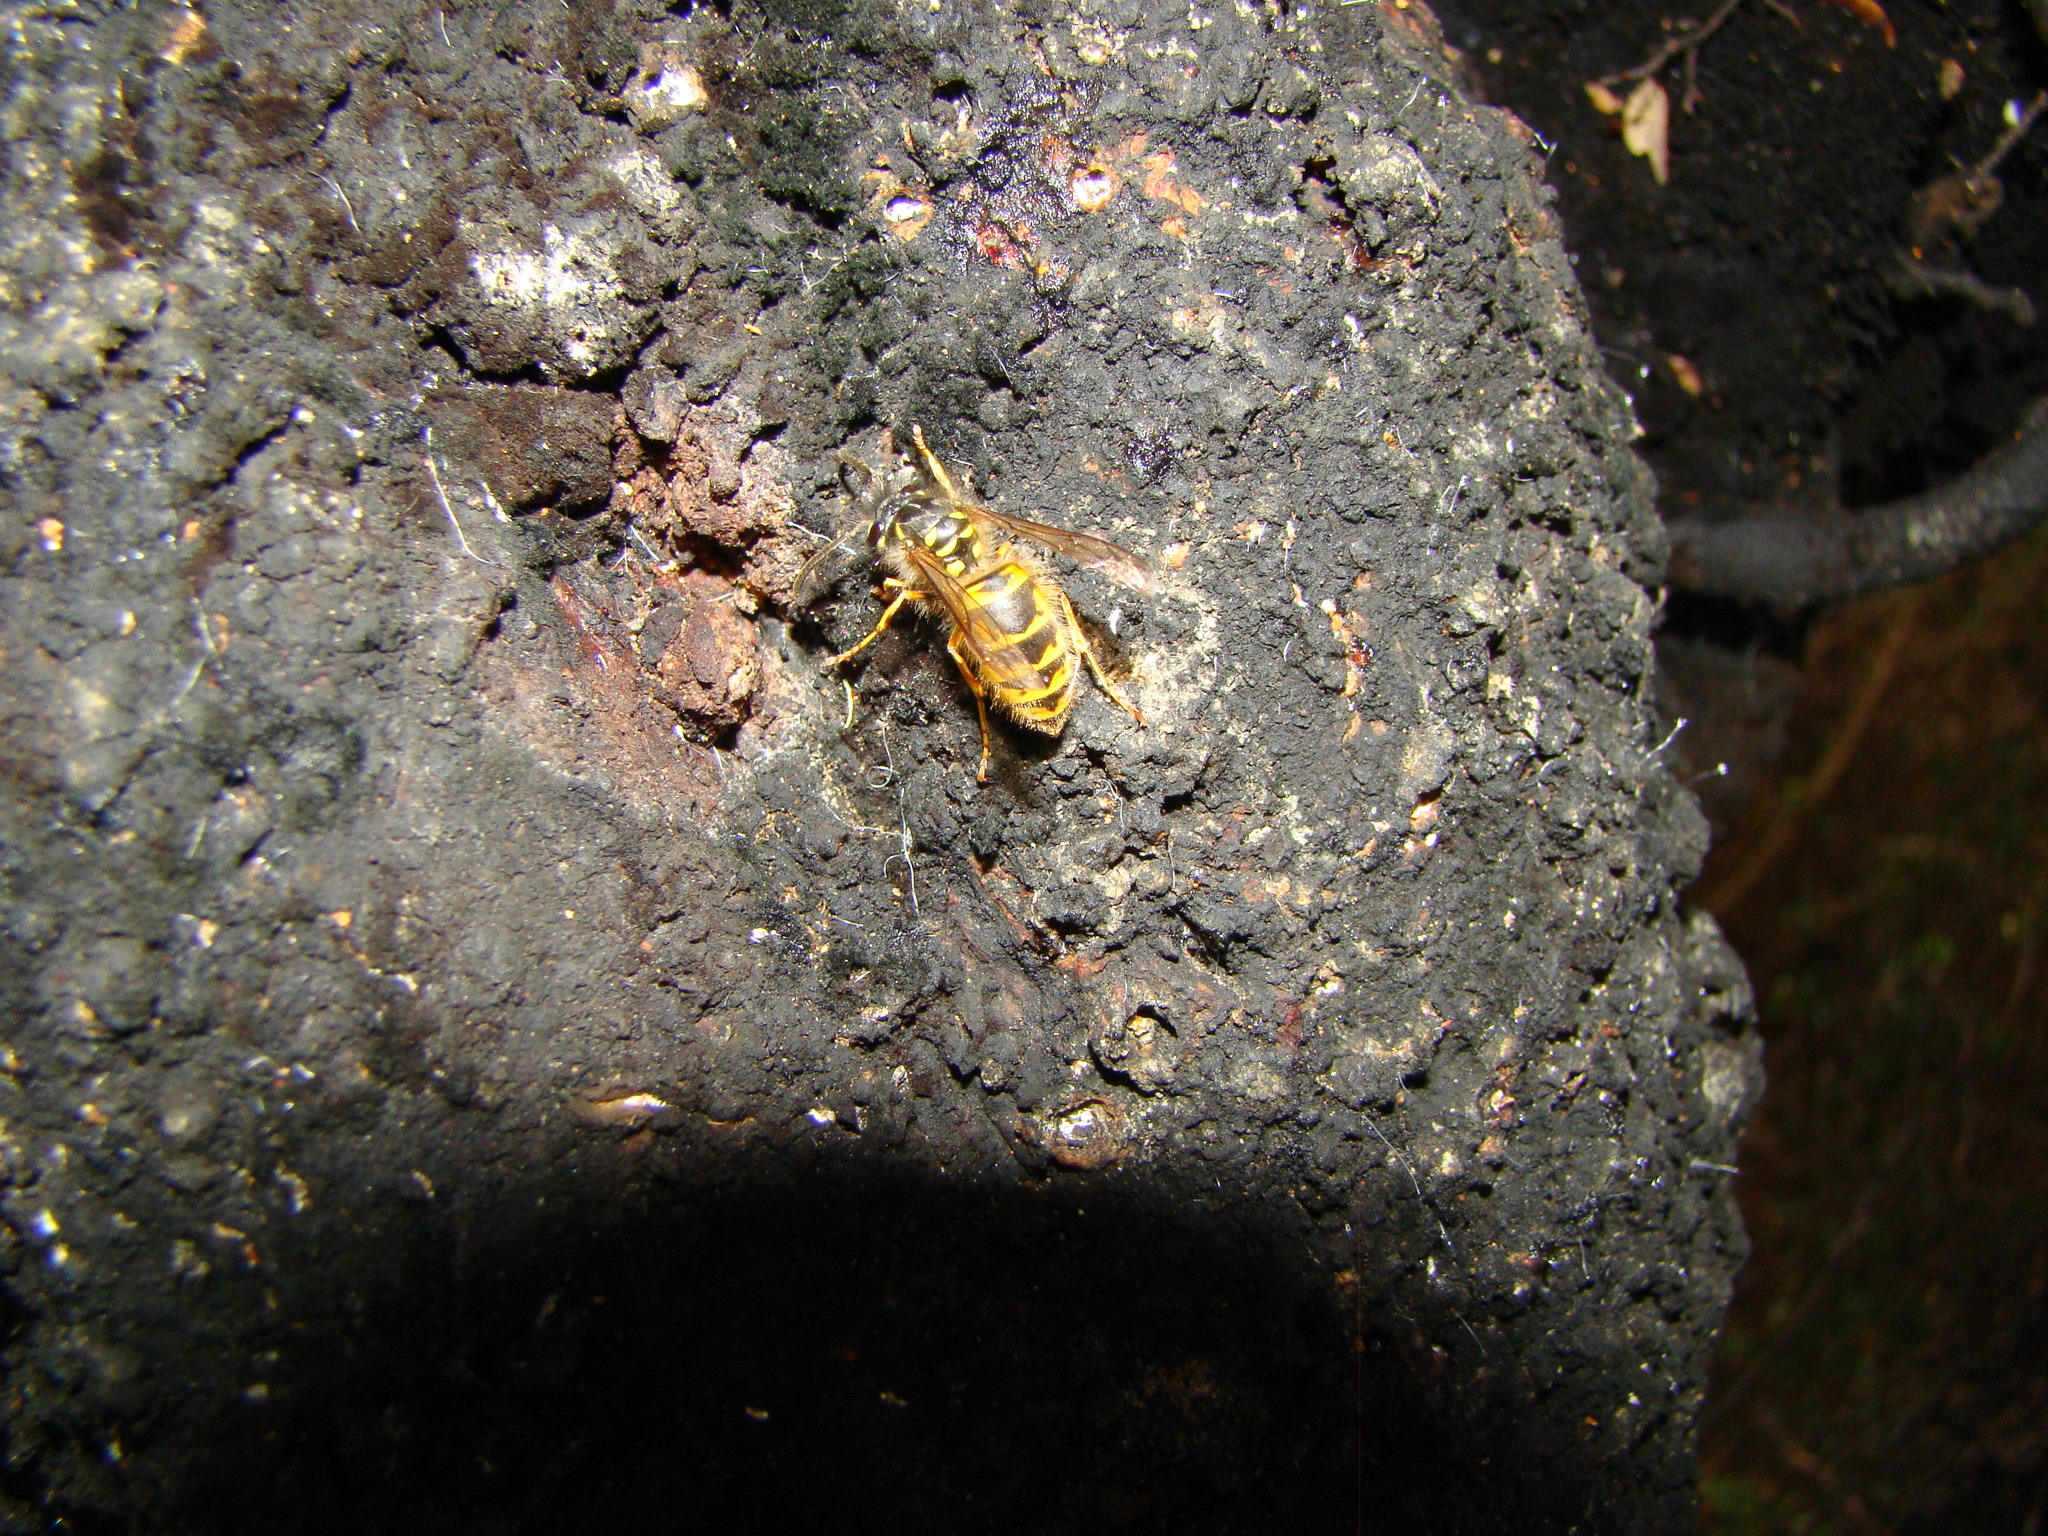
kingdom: Animalia
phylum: Arthropoda
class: Insecta
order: Hymenoptera
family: Vespidae
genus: Vespula
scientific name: Vespula vulgaris
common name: Common wasp
